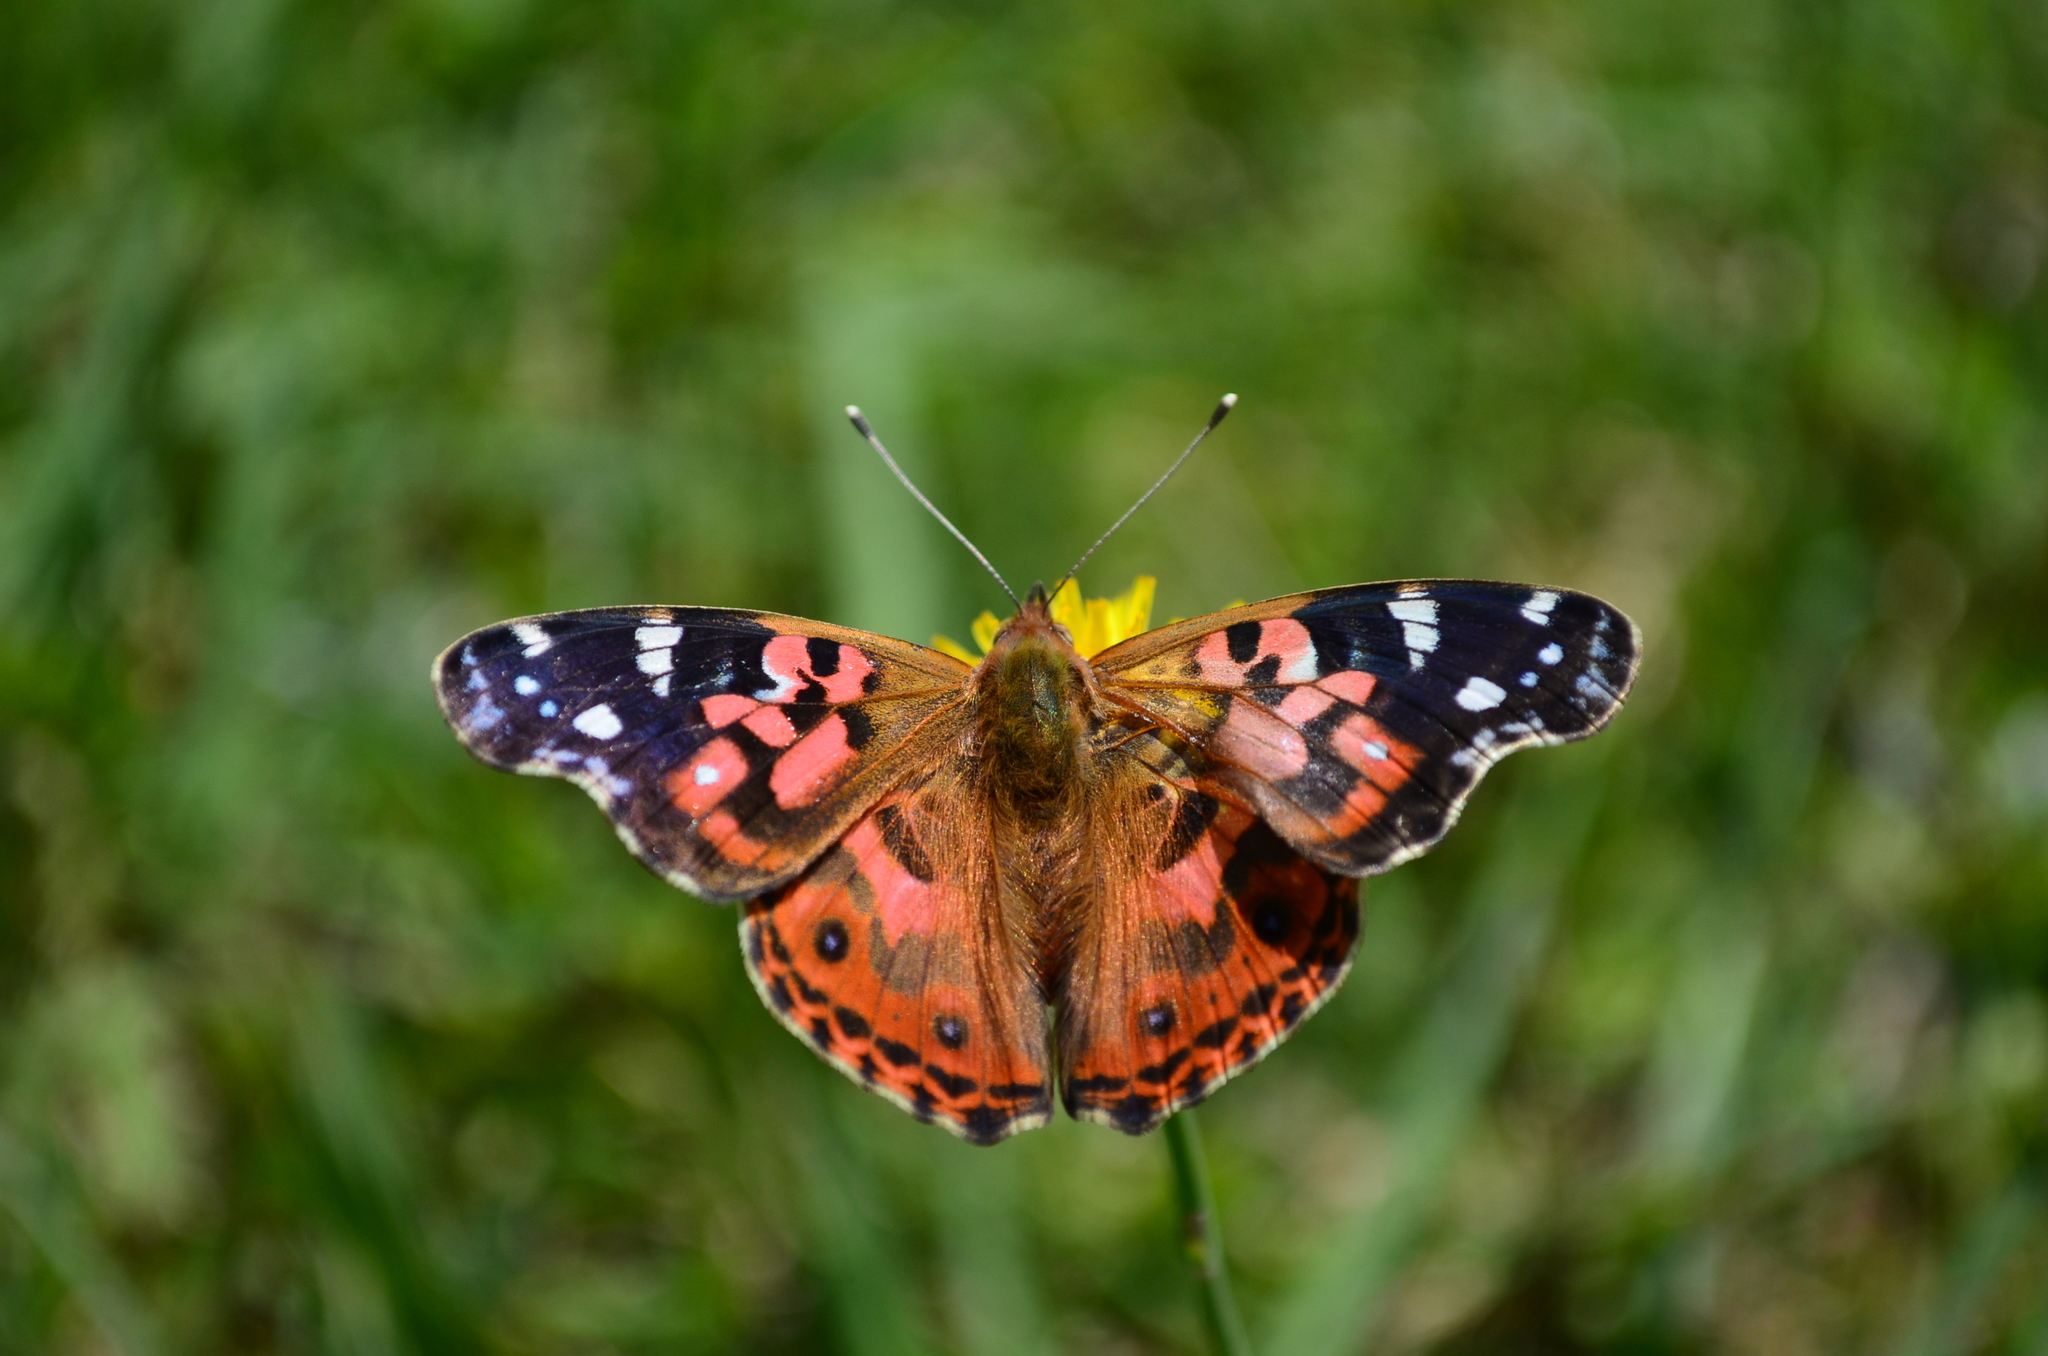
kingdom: Animalia
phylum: Arthropoda
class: Insecta
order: Lepidoptera
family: Nymphalidae
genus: Vanessa
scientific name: Vanessa braziliensis
